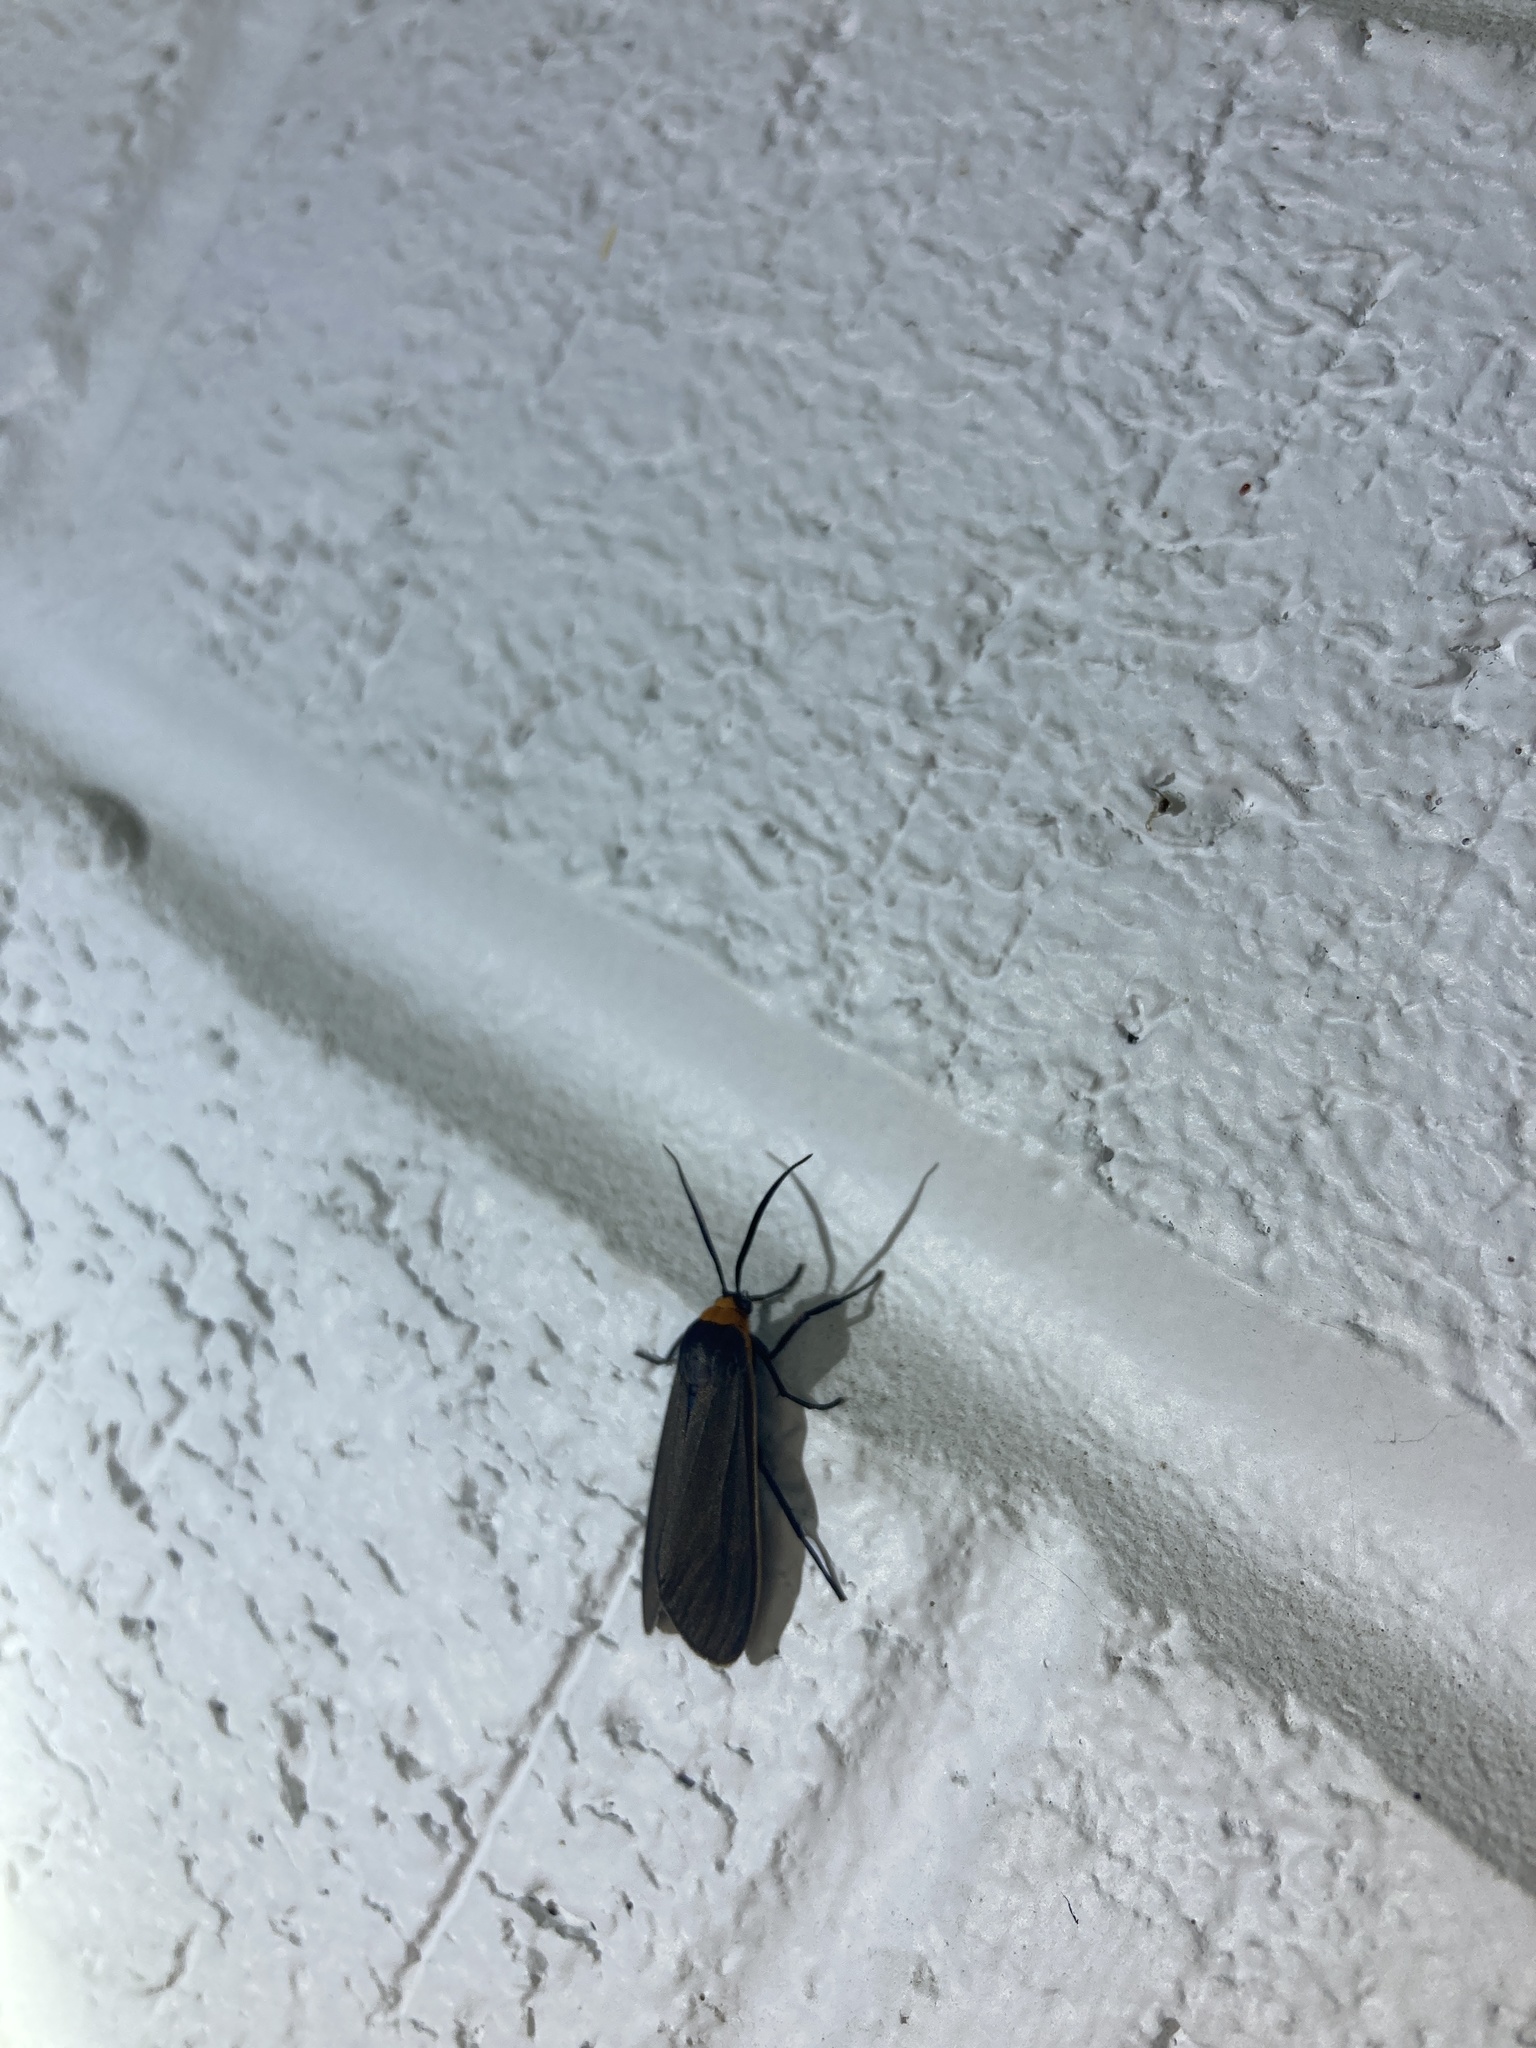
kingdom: Animalia
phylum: Arthropoda
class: Insecta
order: Lepidoptera
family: Erebidae
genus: Cisseps
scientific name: Cisseps fulvicollis
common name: Yellow-collared scape moth
